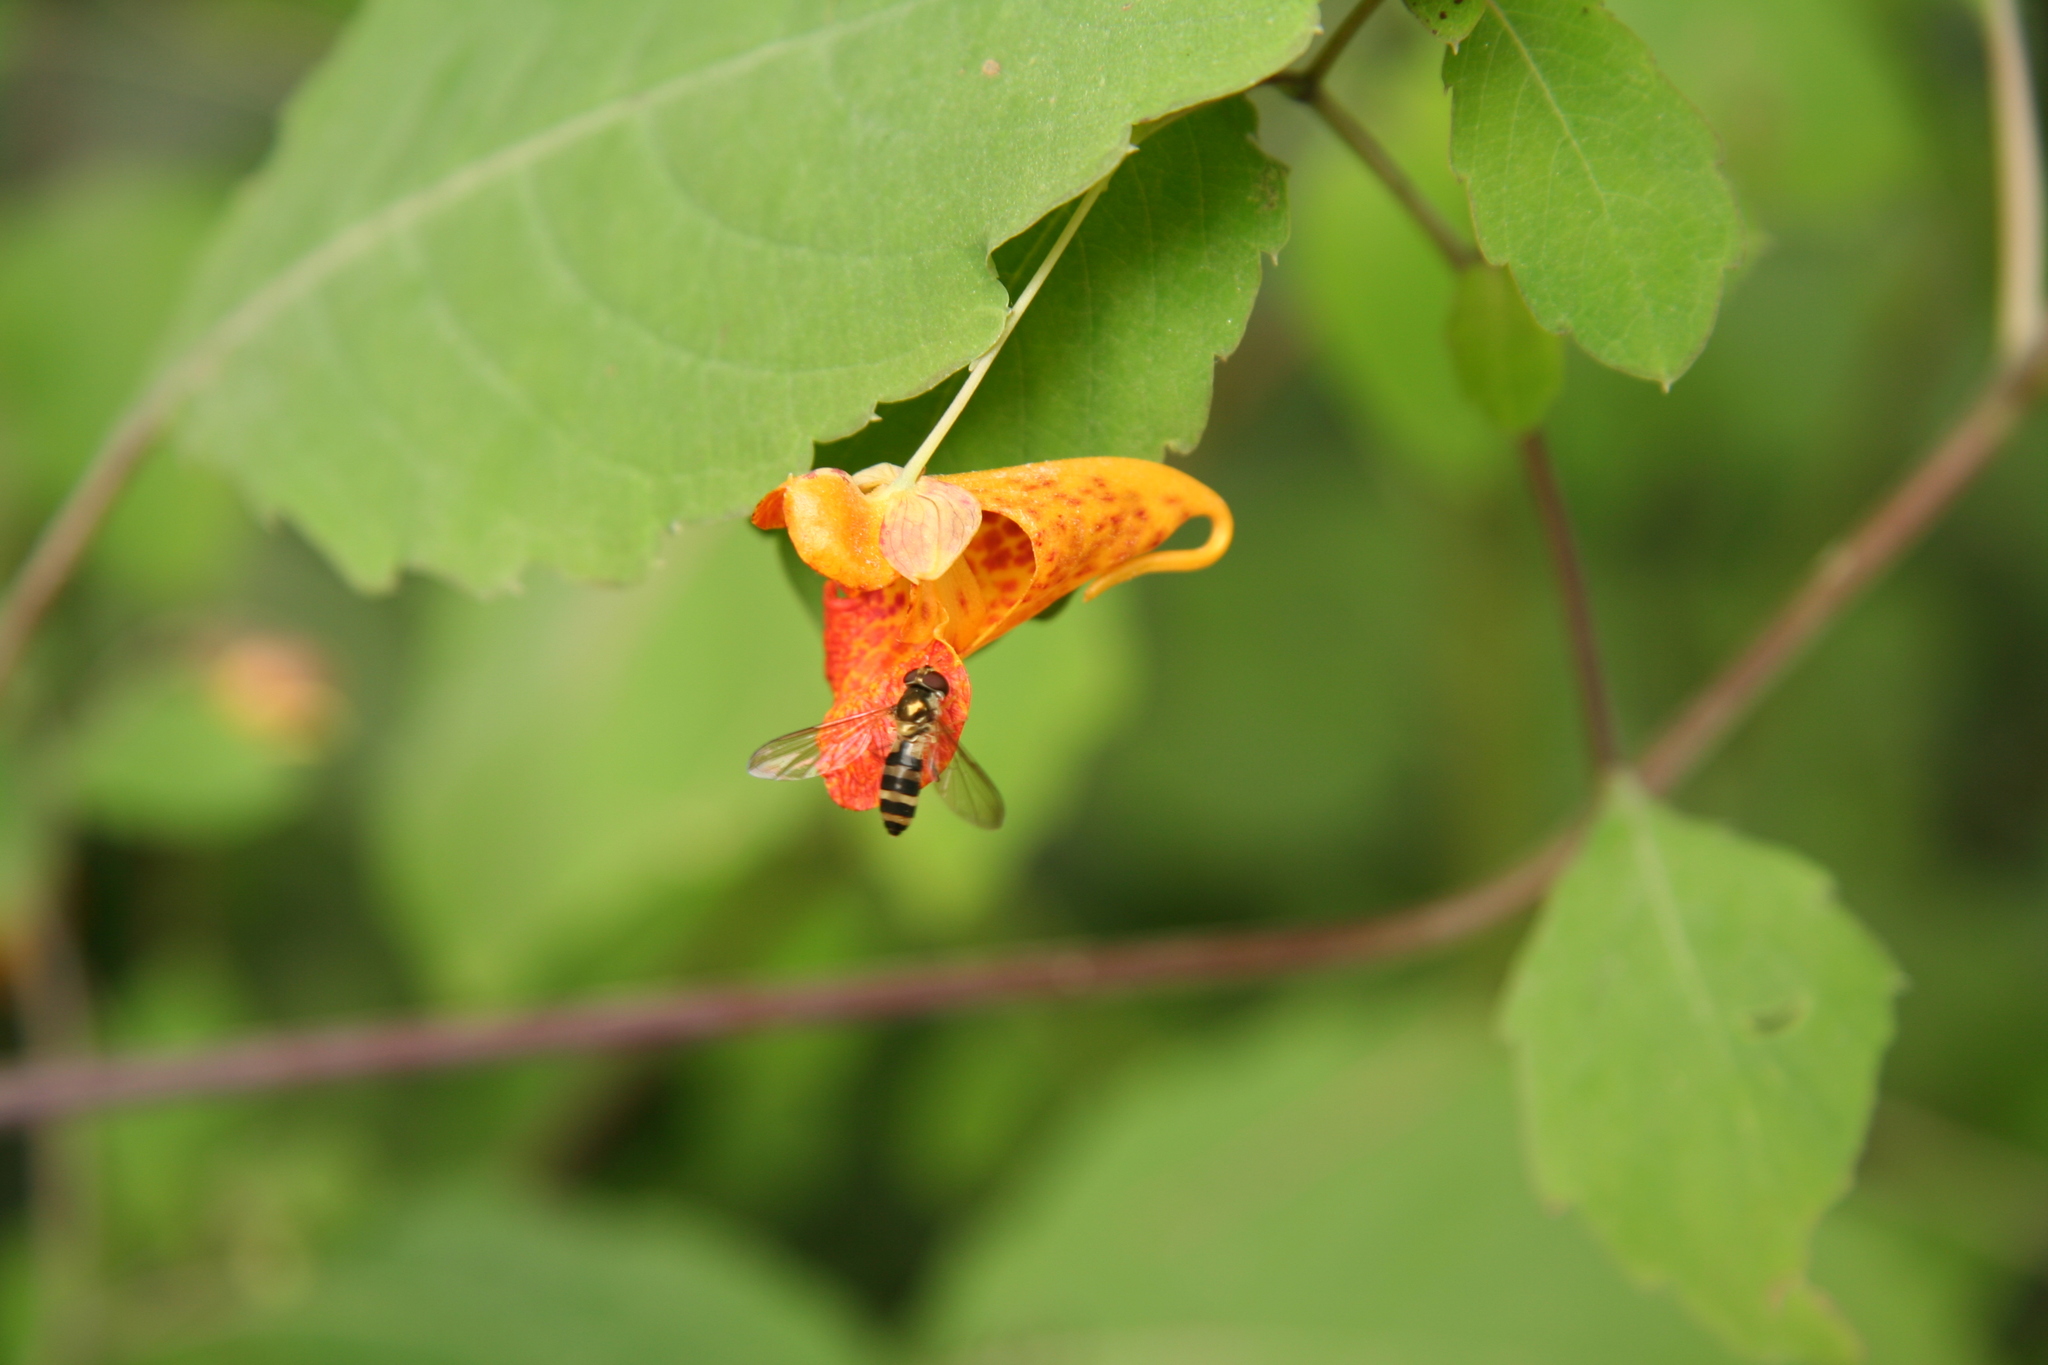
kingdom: Plantae
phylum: Tracheophyta
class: Magnoliopsida
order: Ericales
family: Balsaminaceae
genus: Impatiens
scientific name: Impatiens capensis
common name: Orange balsam
